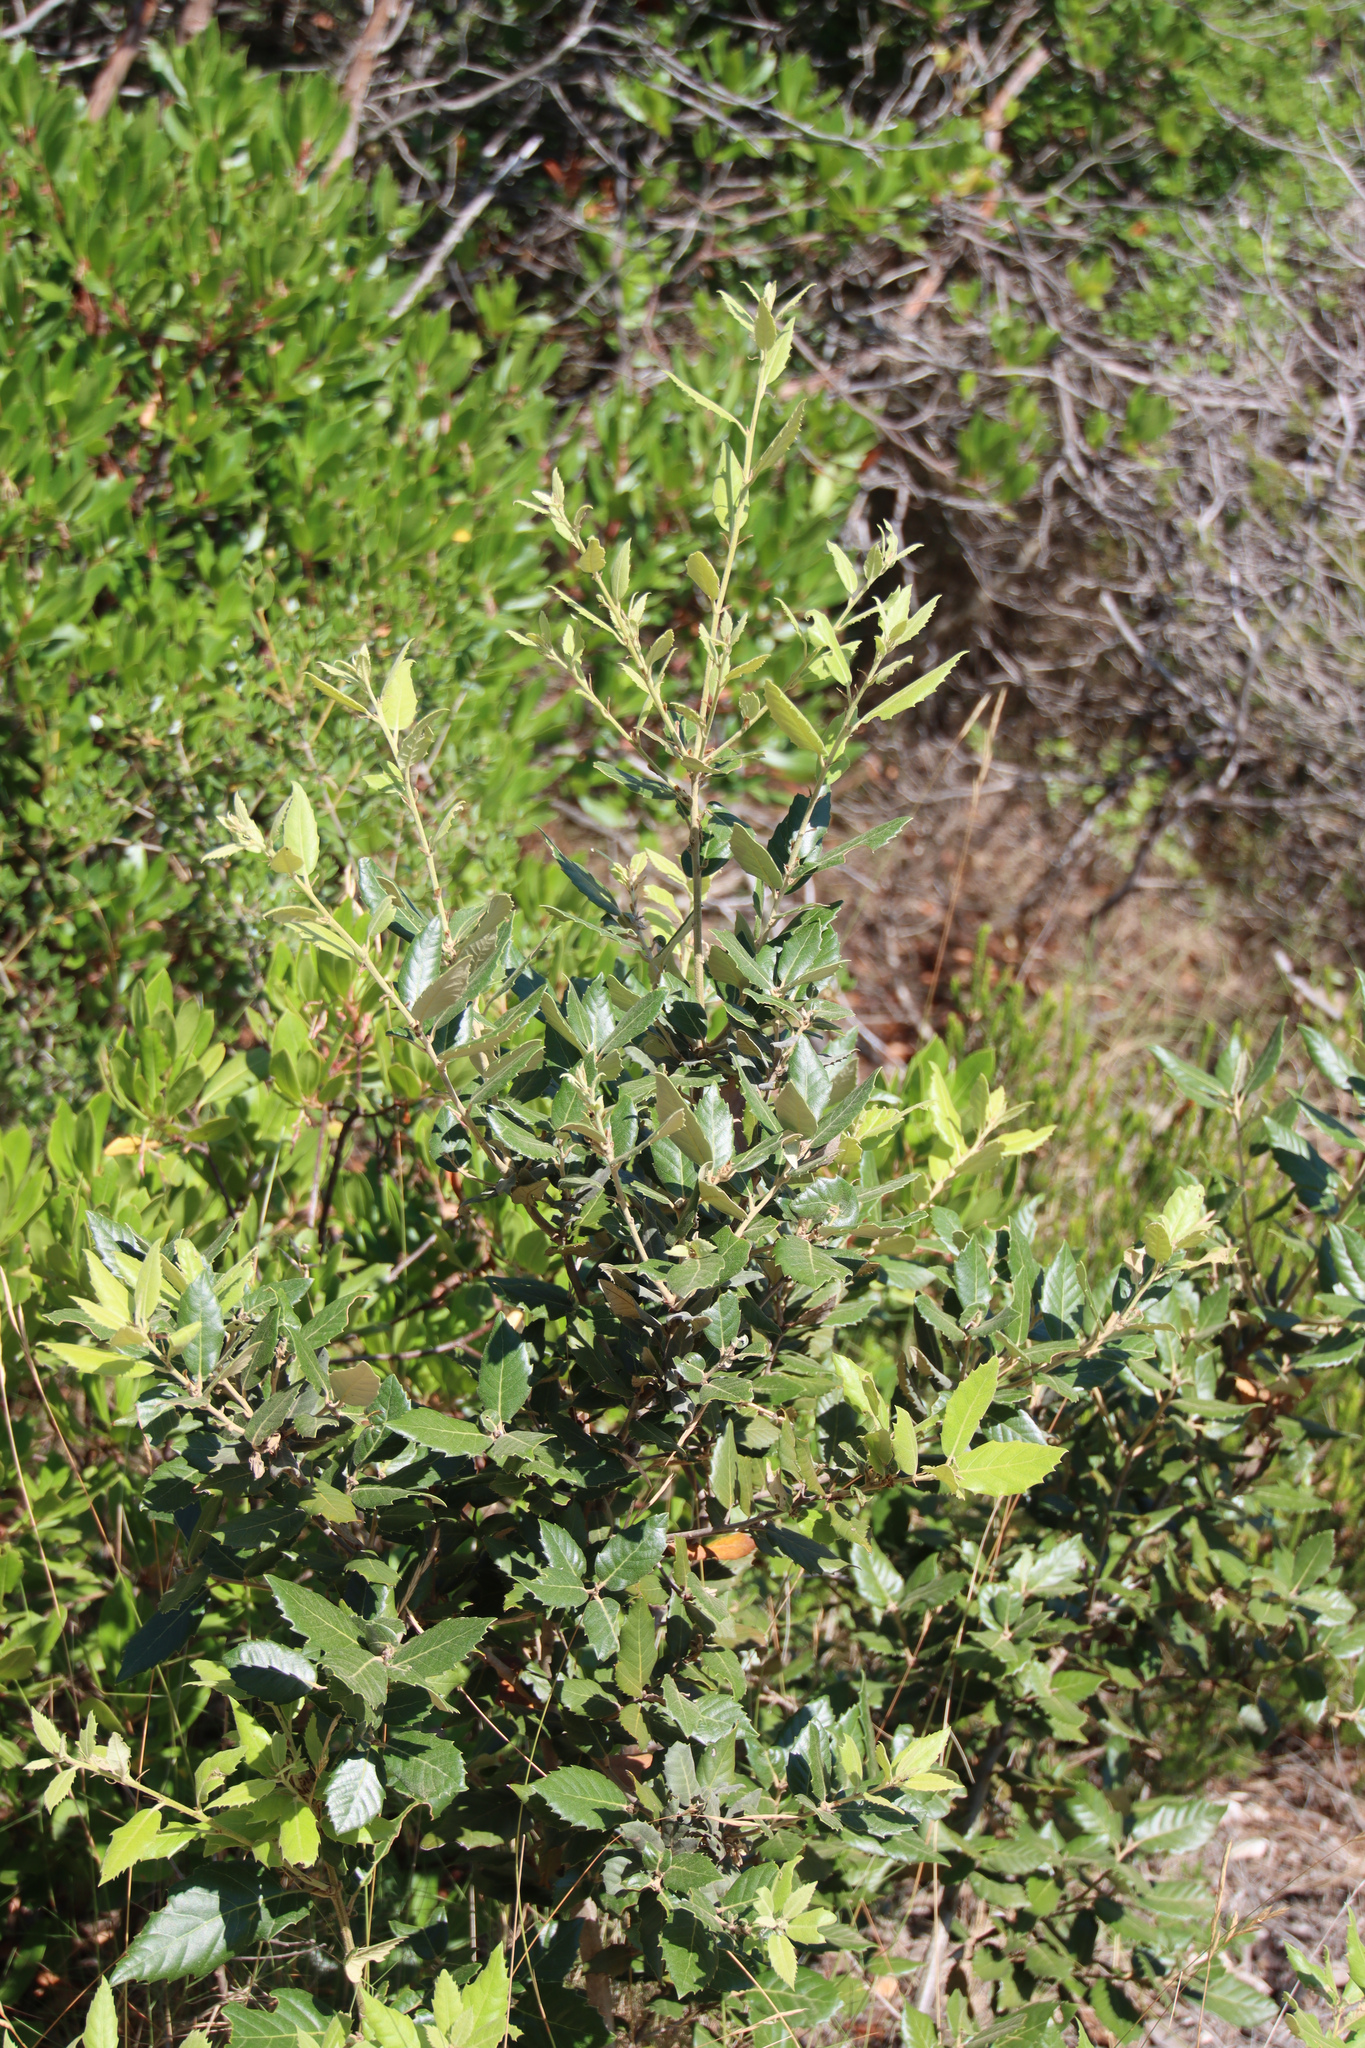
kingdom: Plantae
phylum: Tracheophyta
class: Magnoliopsida
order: Fagales
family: Fagaceae
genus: Quercus
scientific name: Quercus ilex
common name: Evergreen oak
